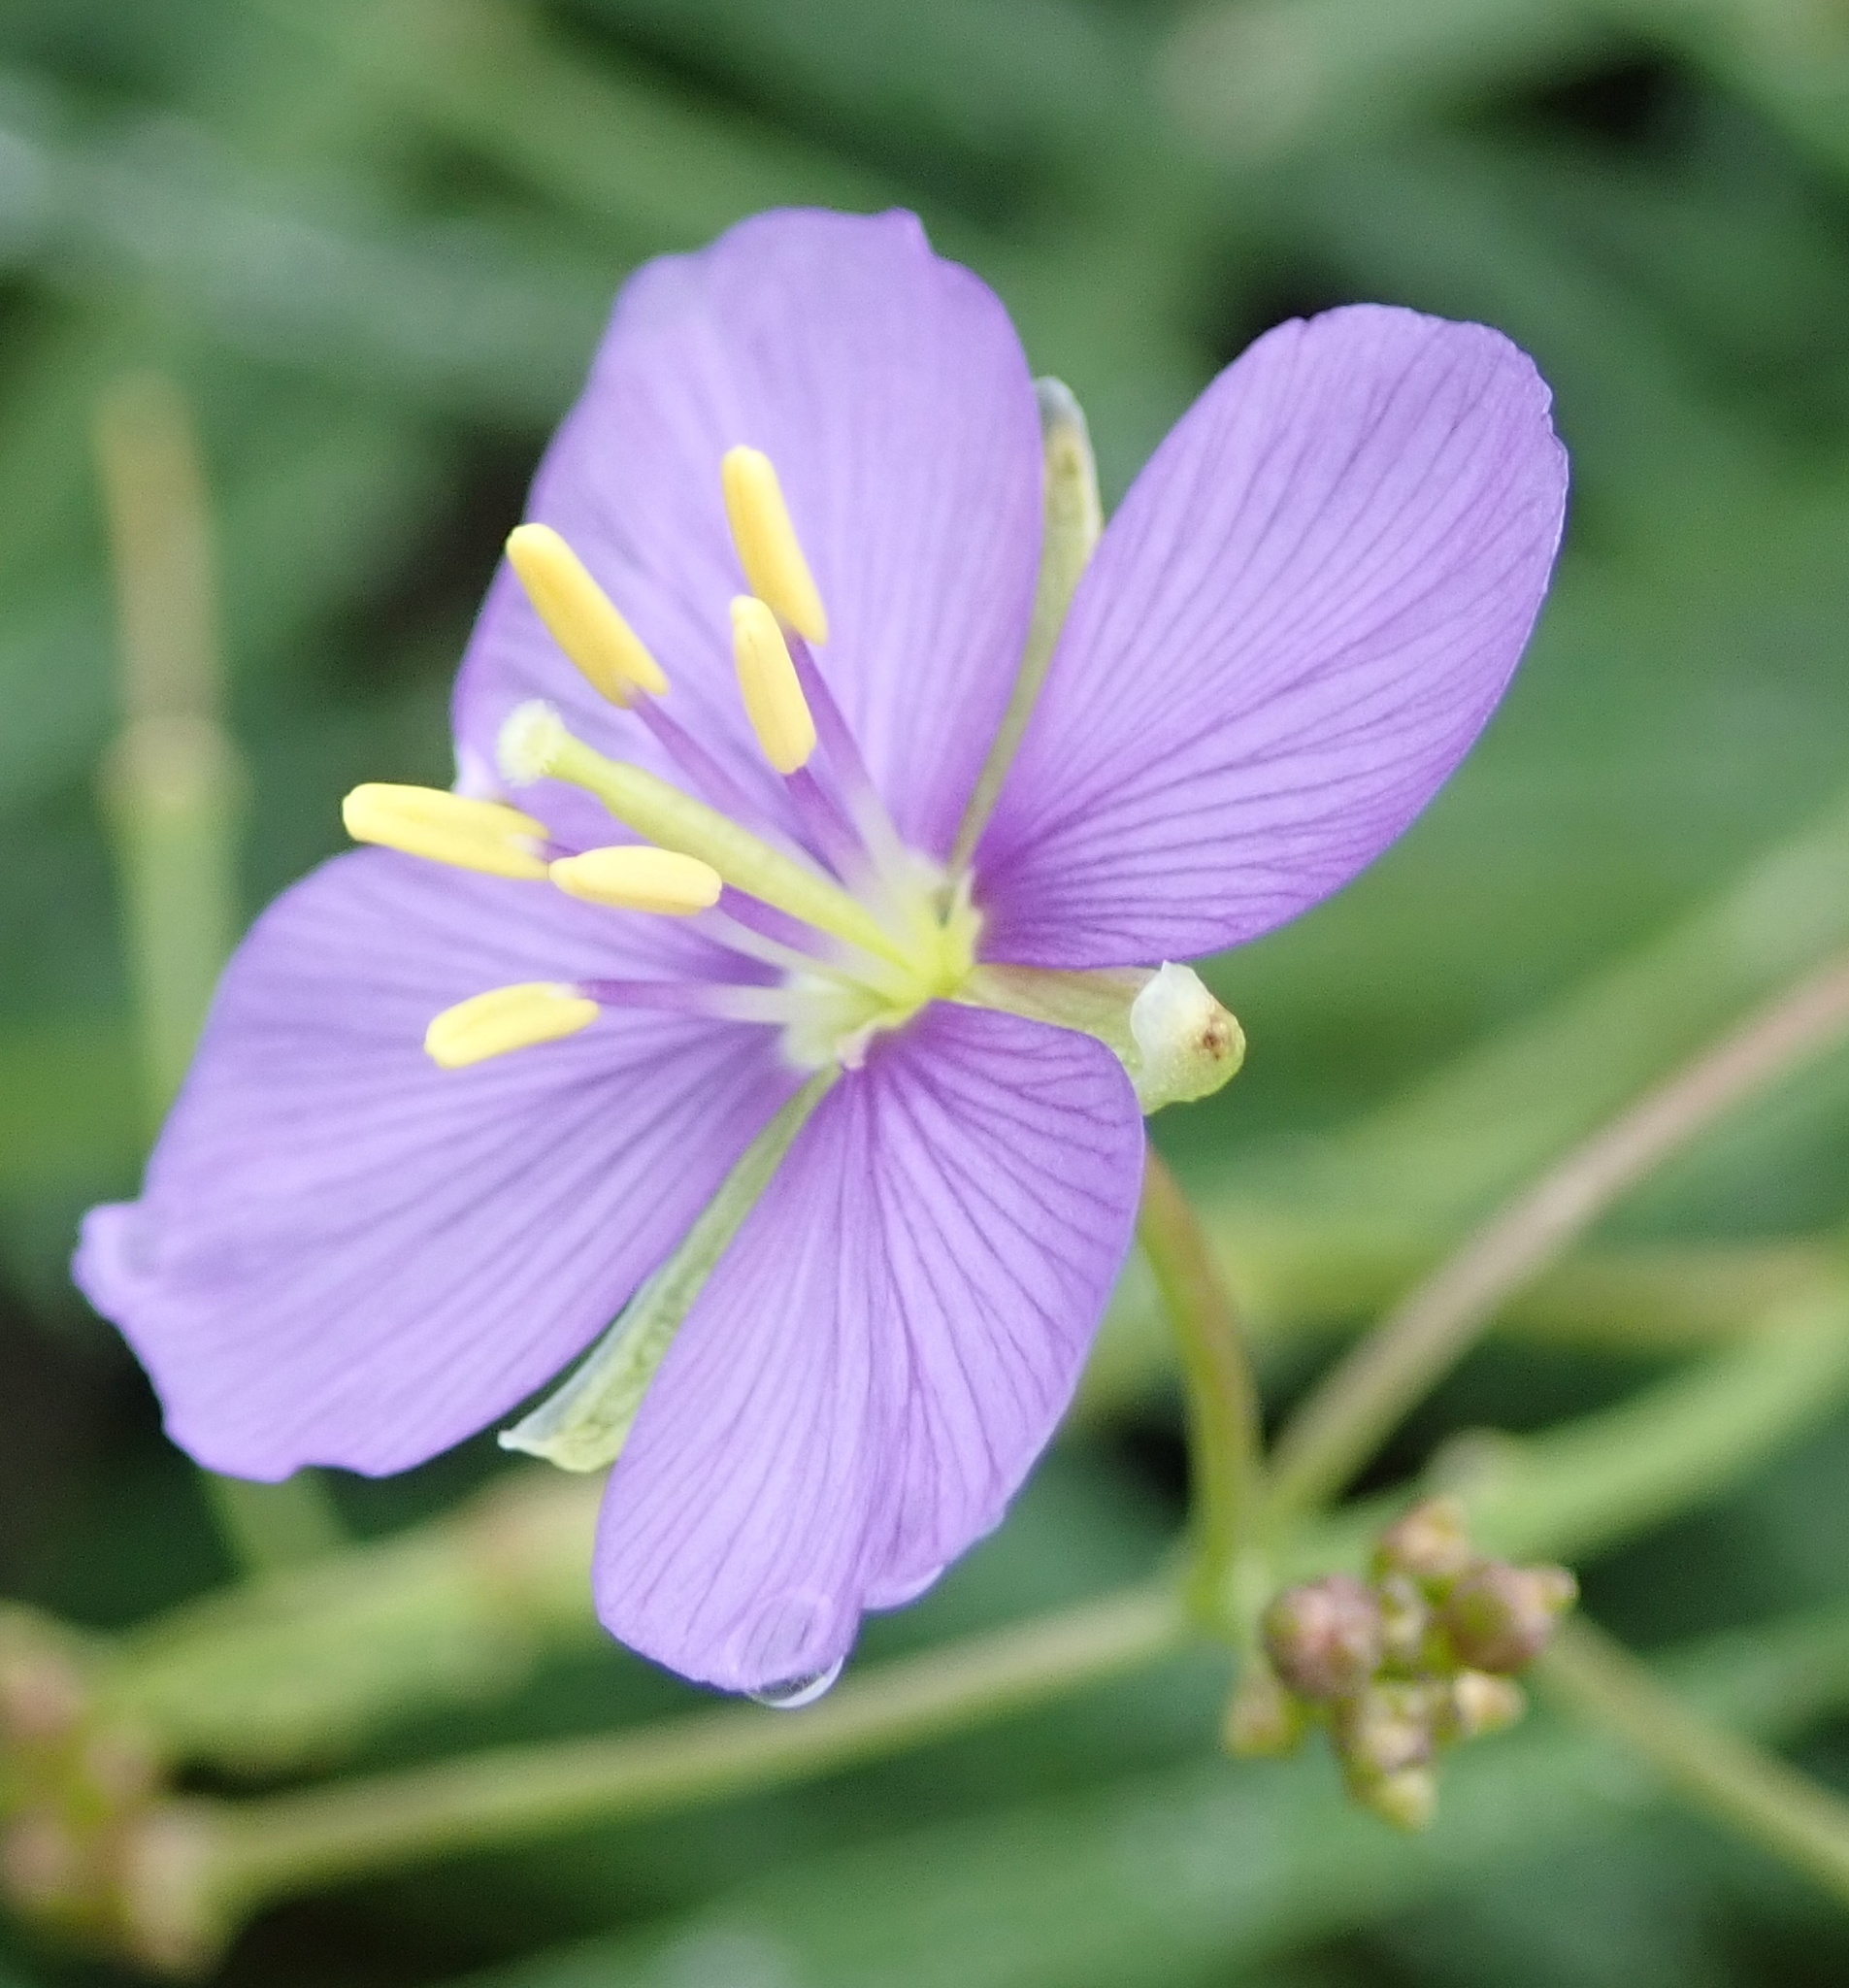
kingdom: Plantae
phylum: Tracheophyta
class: Magnoliopsida
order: Brassicales
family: Brassicaceae
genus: Heliophila
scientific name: Heliophila suavissima
